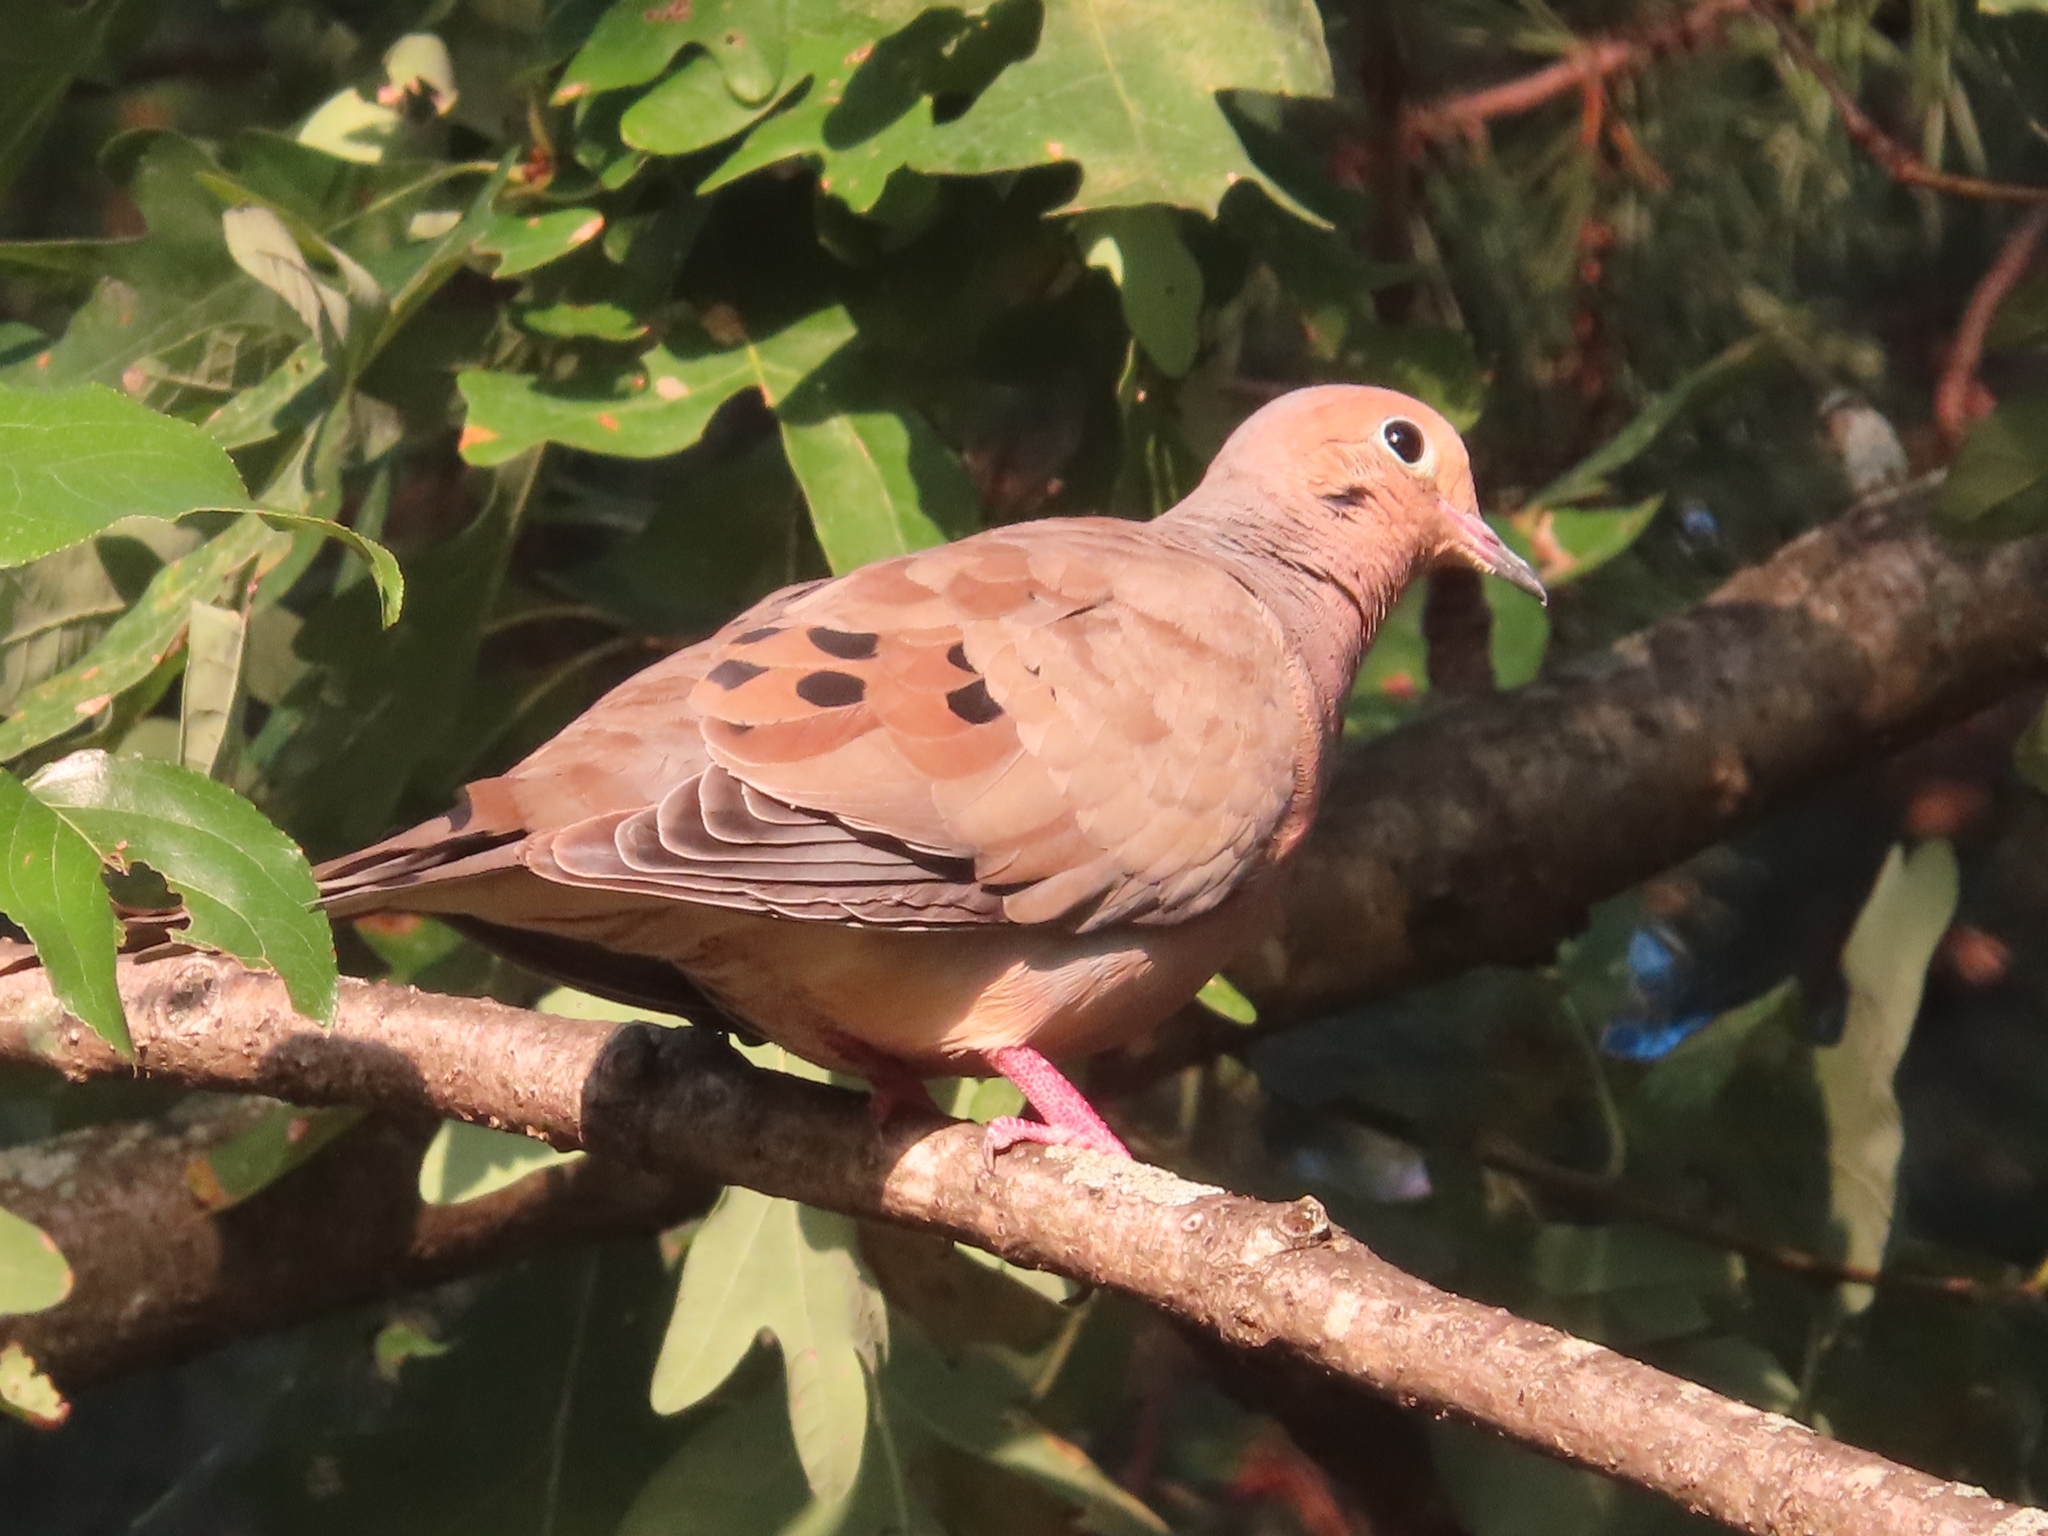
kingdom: Animalia
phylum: Chordata
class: Aves
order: Columbiformes
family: Columbidae
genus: Zenaida
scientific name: Zenaida macroura
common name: Mourning dove
